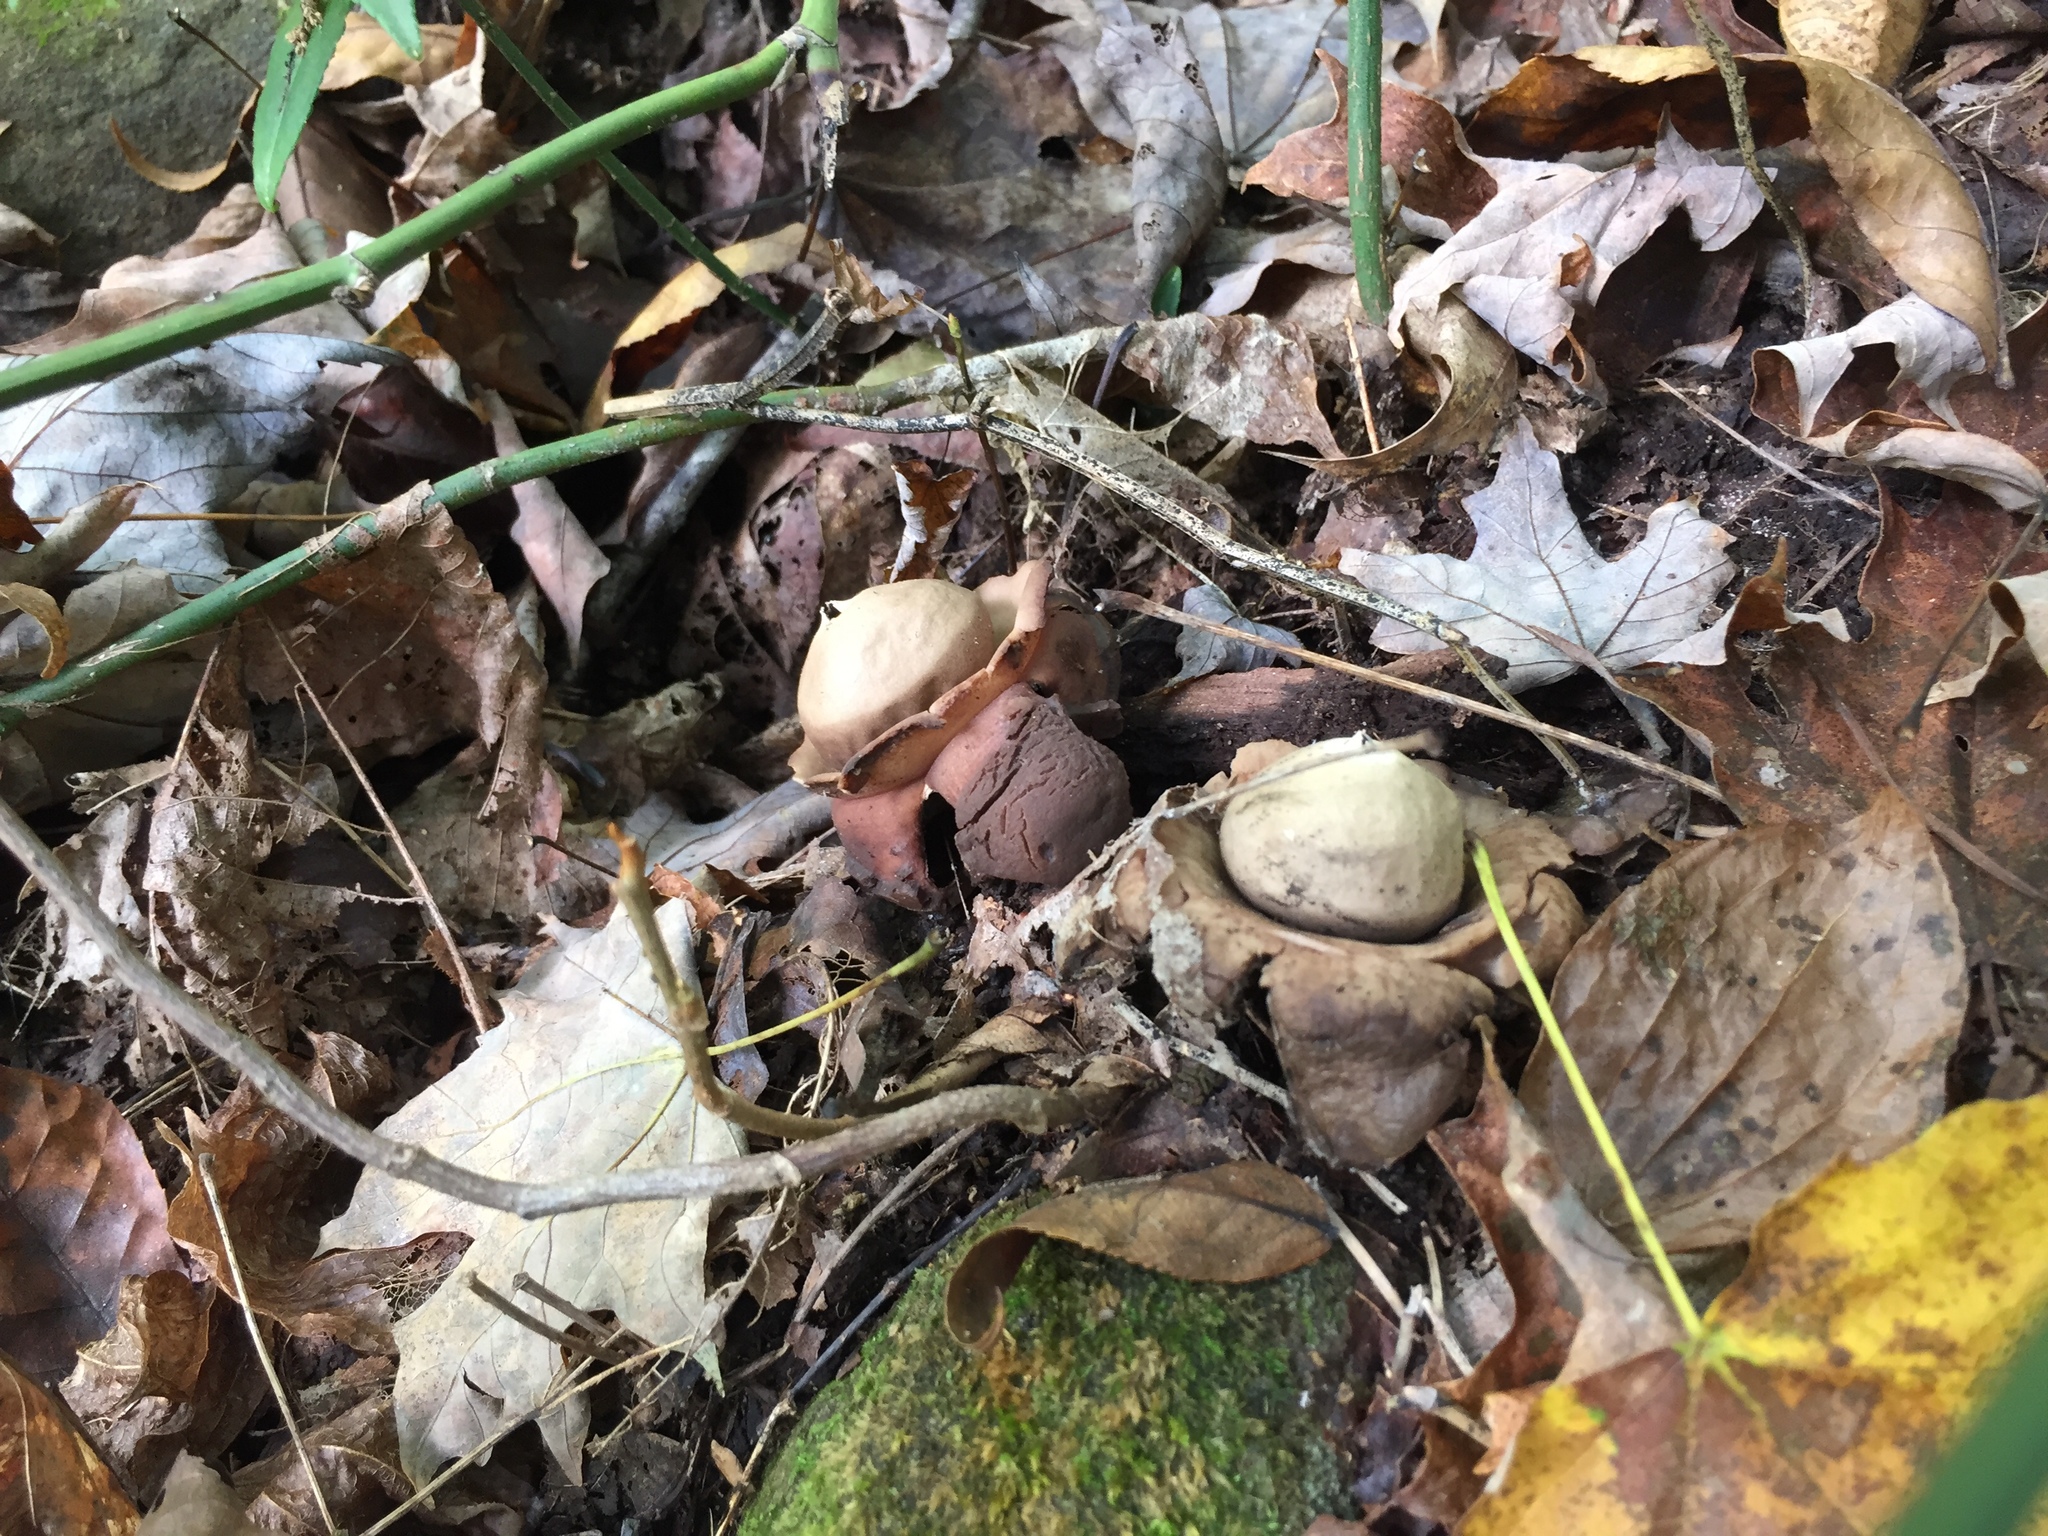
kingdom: Fungi
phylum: Basidiomycota
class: Agaricomycetes
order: Geastrales
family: Geastraceae
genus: Geastrum
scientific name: Geastrum triplex
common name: Collared earthstar
